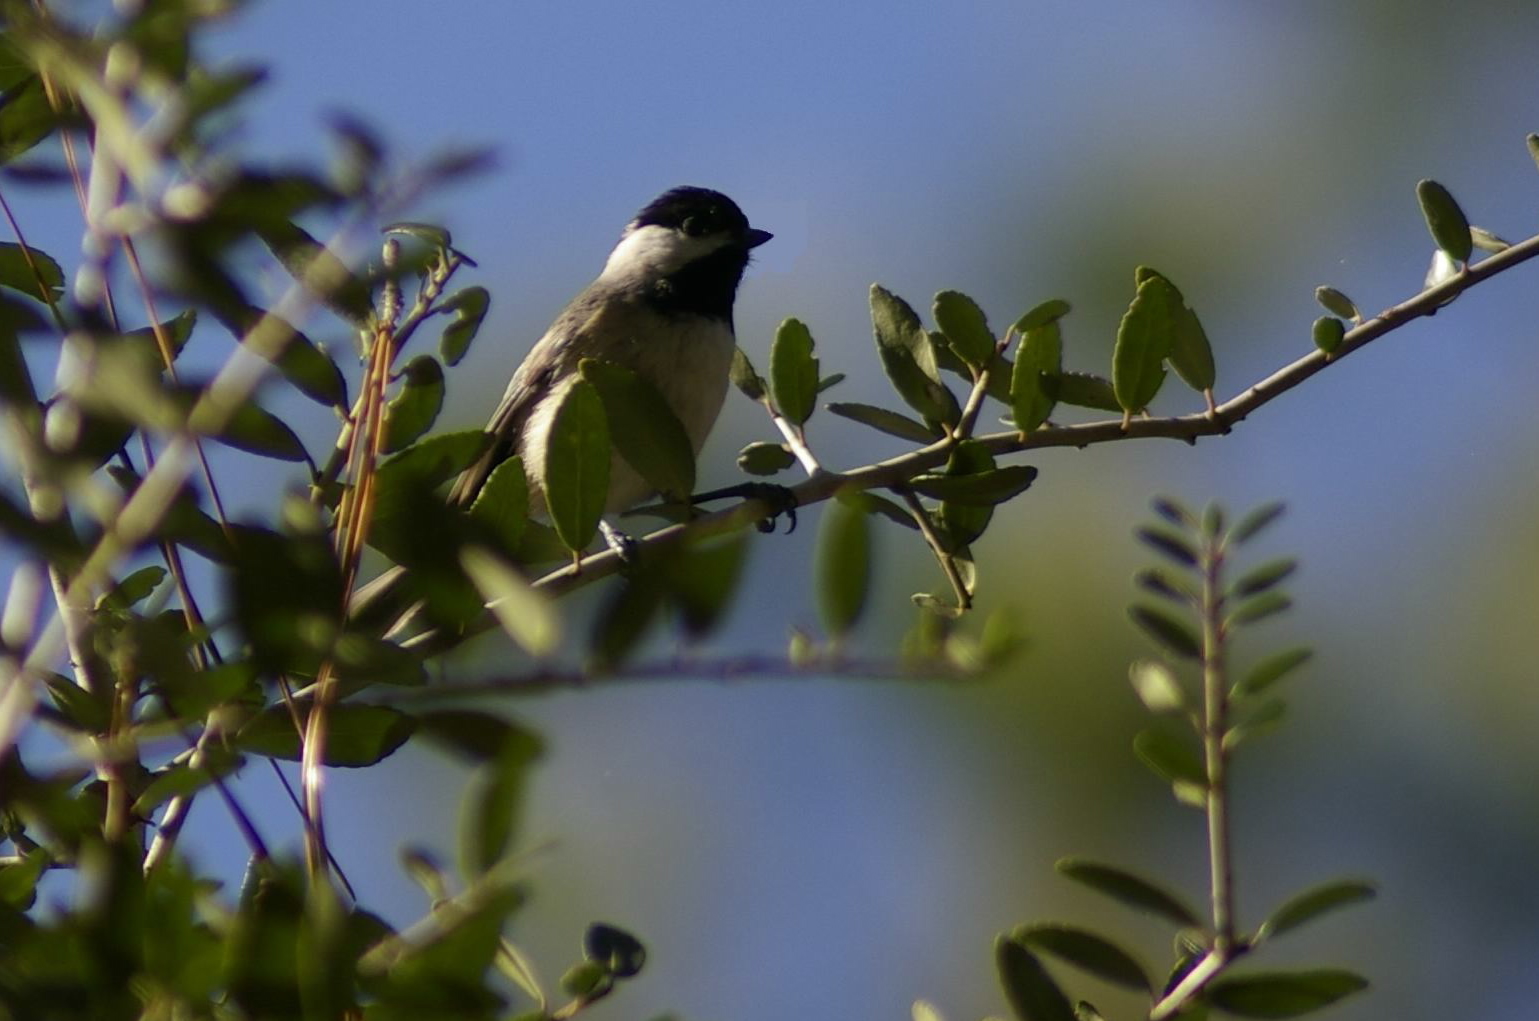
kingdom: Animalia
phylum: Chordata
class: Aves
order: Passeriformes
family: Paridae
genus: Poecile
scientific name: Poecile carolinensis
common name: Carolina chickadee
